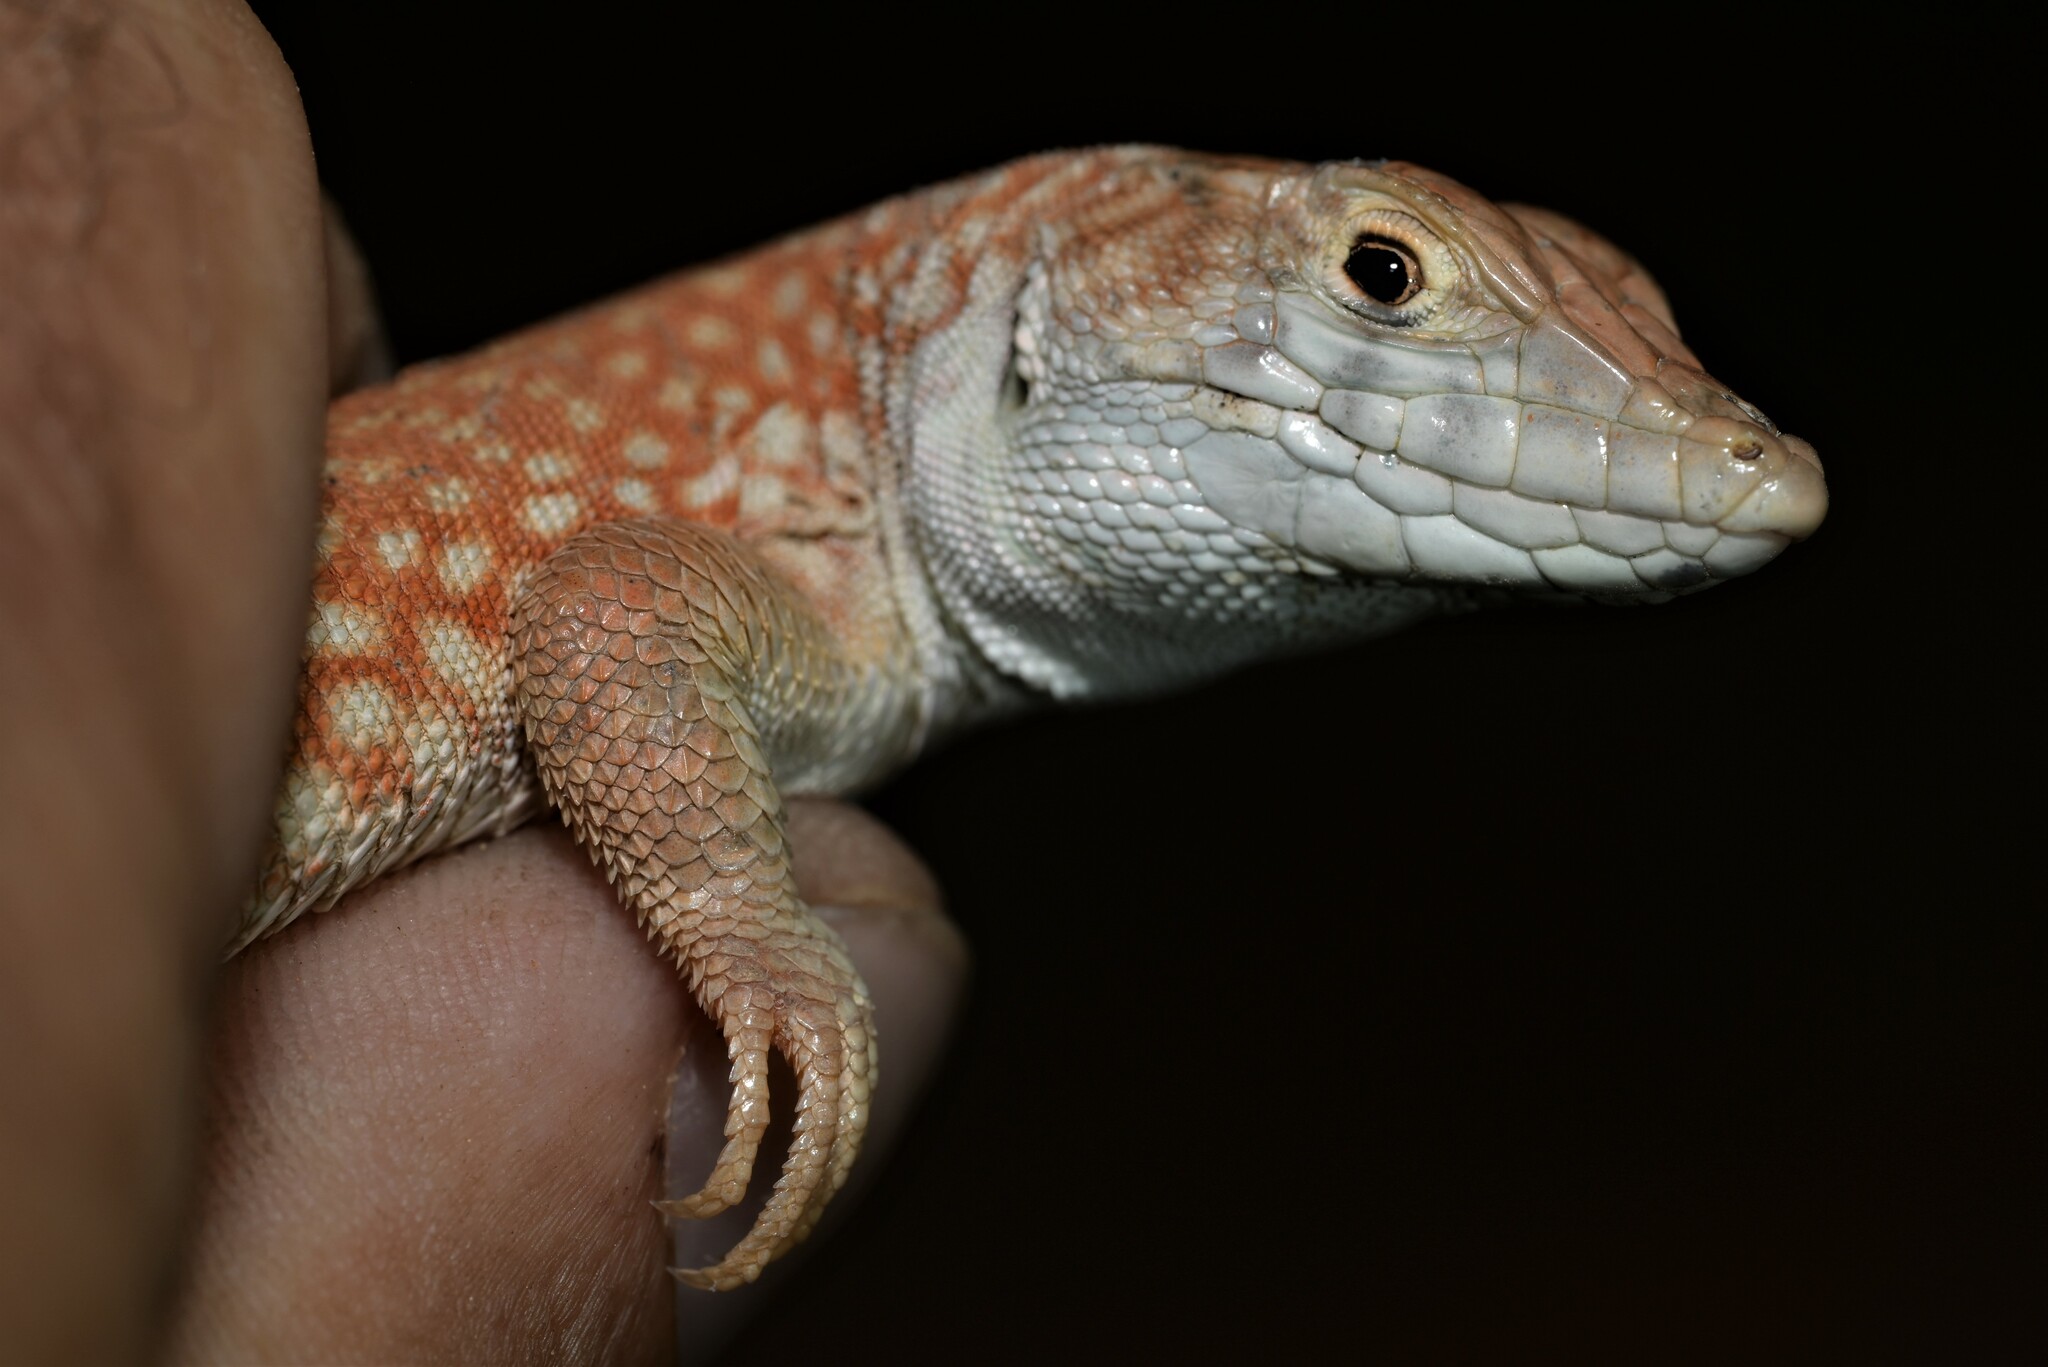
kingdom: Animalia
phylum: Chordata
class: Squamata
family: Lacertidae
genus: Acanthodactylus
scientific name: Acanthodactylus schmidti
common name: Schmidt's fringe-toed lizard
